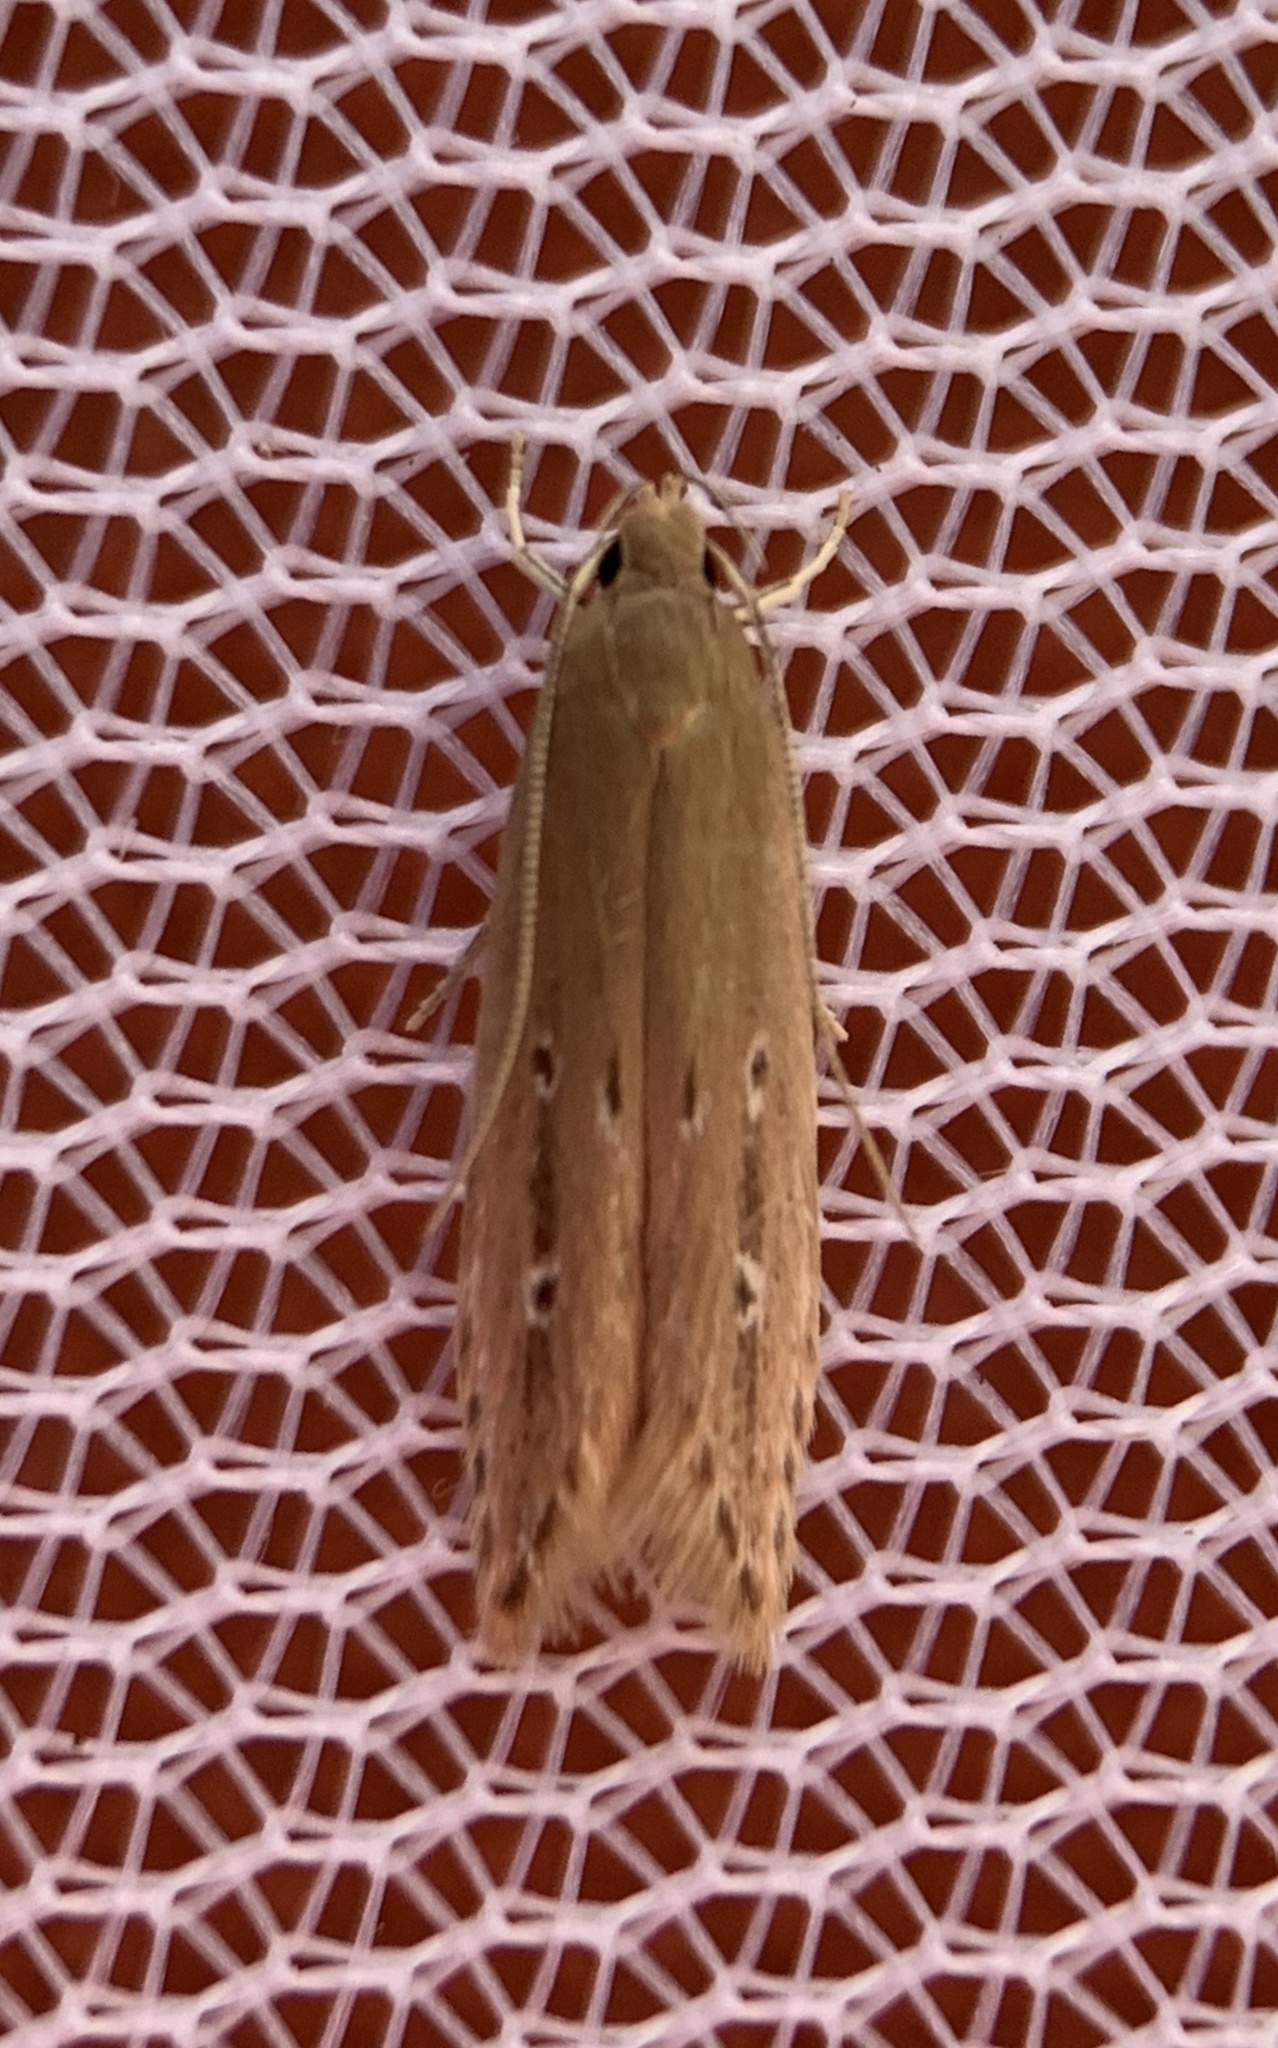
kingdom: Animalia
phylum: Arthropoda
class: Insecta
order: Lepidoptera
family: Cosmopterigidae
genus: Limnaecia
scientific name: Limnaecia phragmitella
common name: Bulrush cosmet
